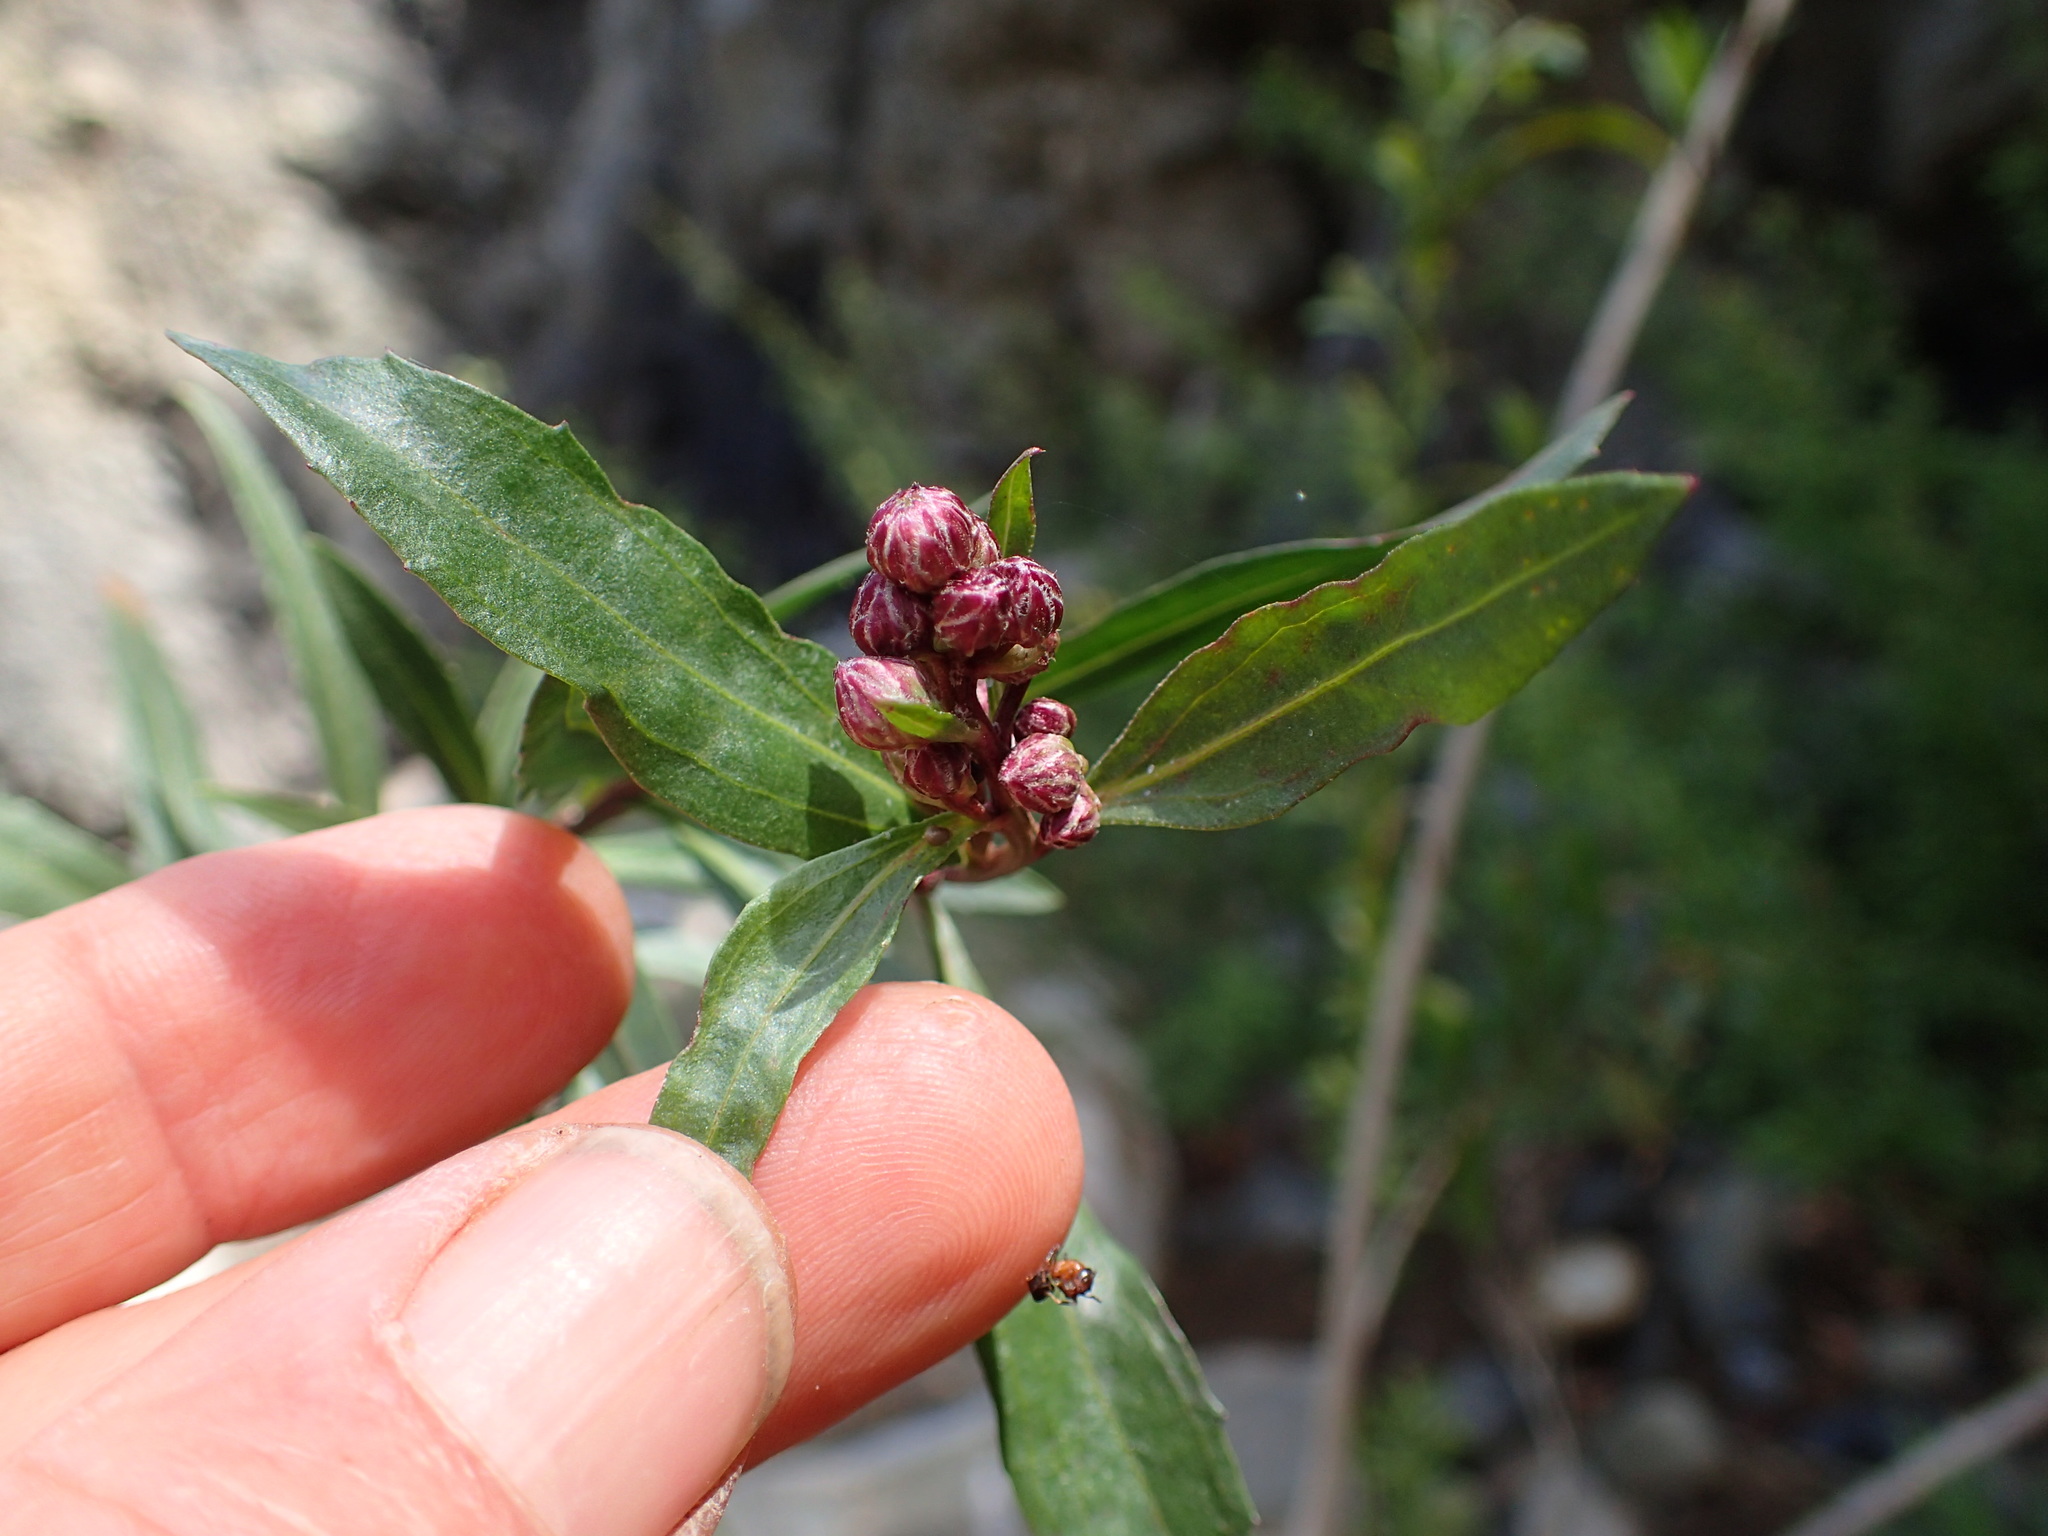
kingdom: Plantae
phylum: Tracheophyta
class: Magnoliopsida
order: Asterales
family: Asteraceae
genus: Baccharis
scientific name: Baccharis salicifolia
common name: Sticky baccharis
